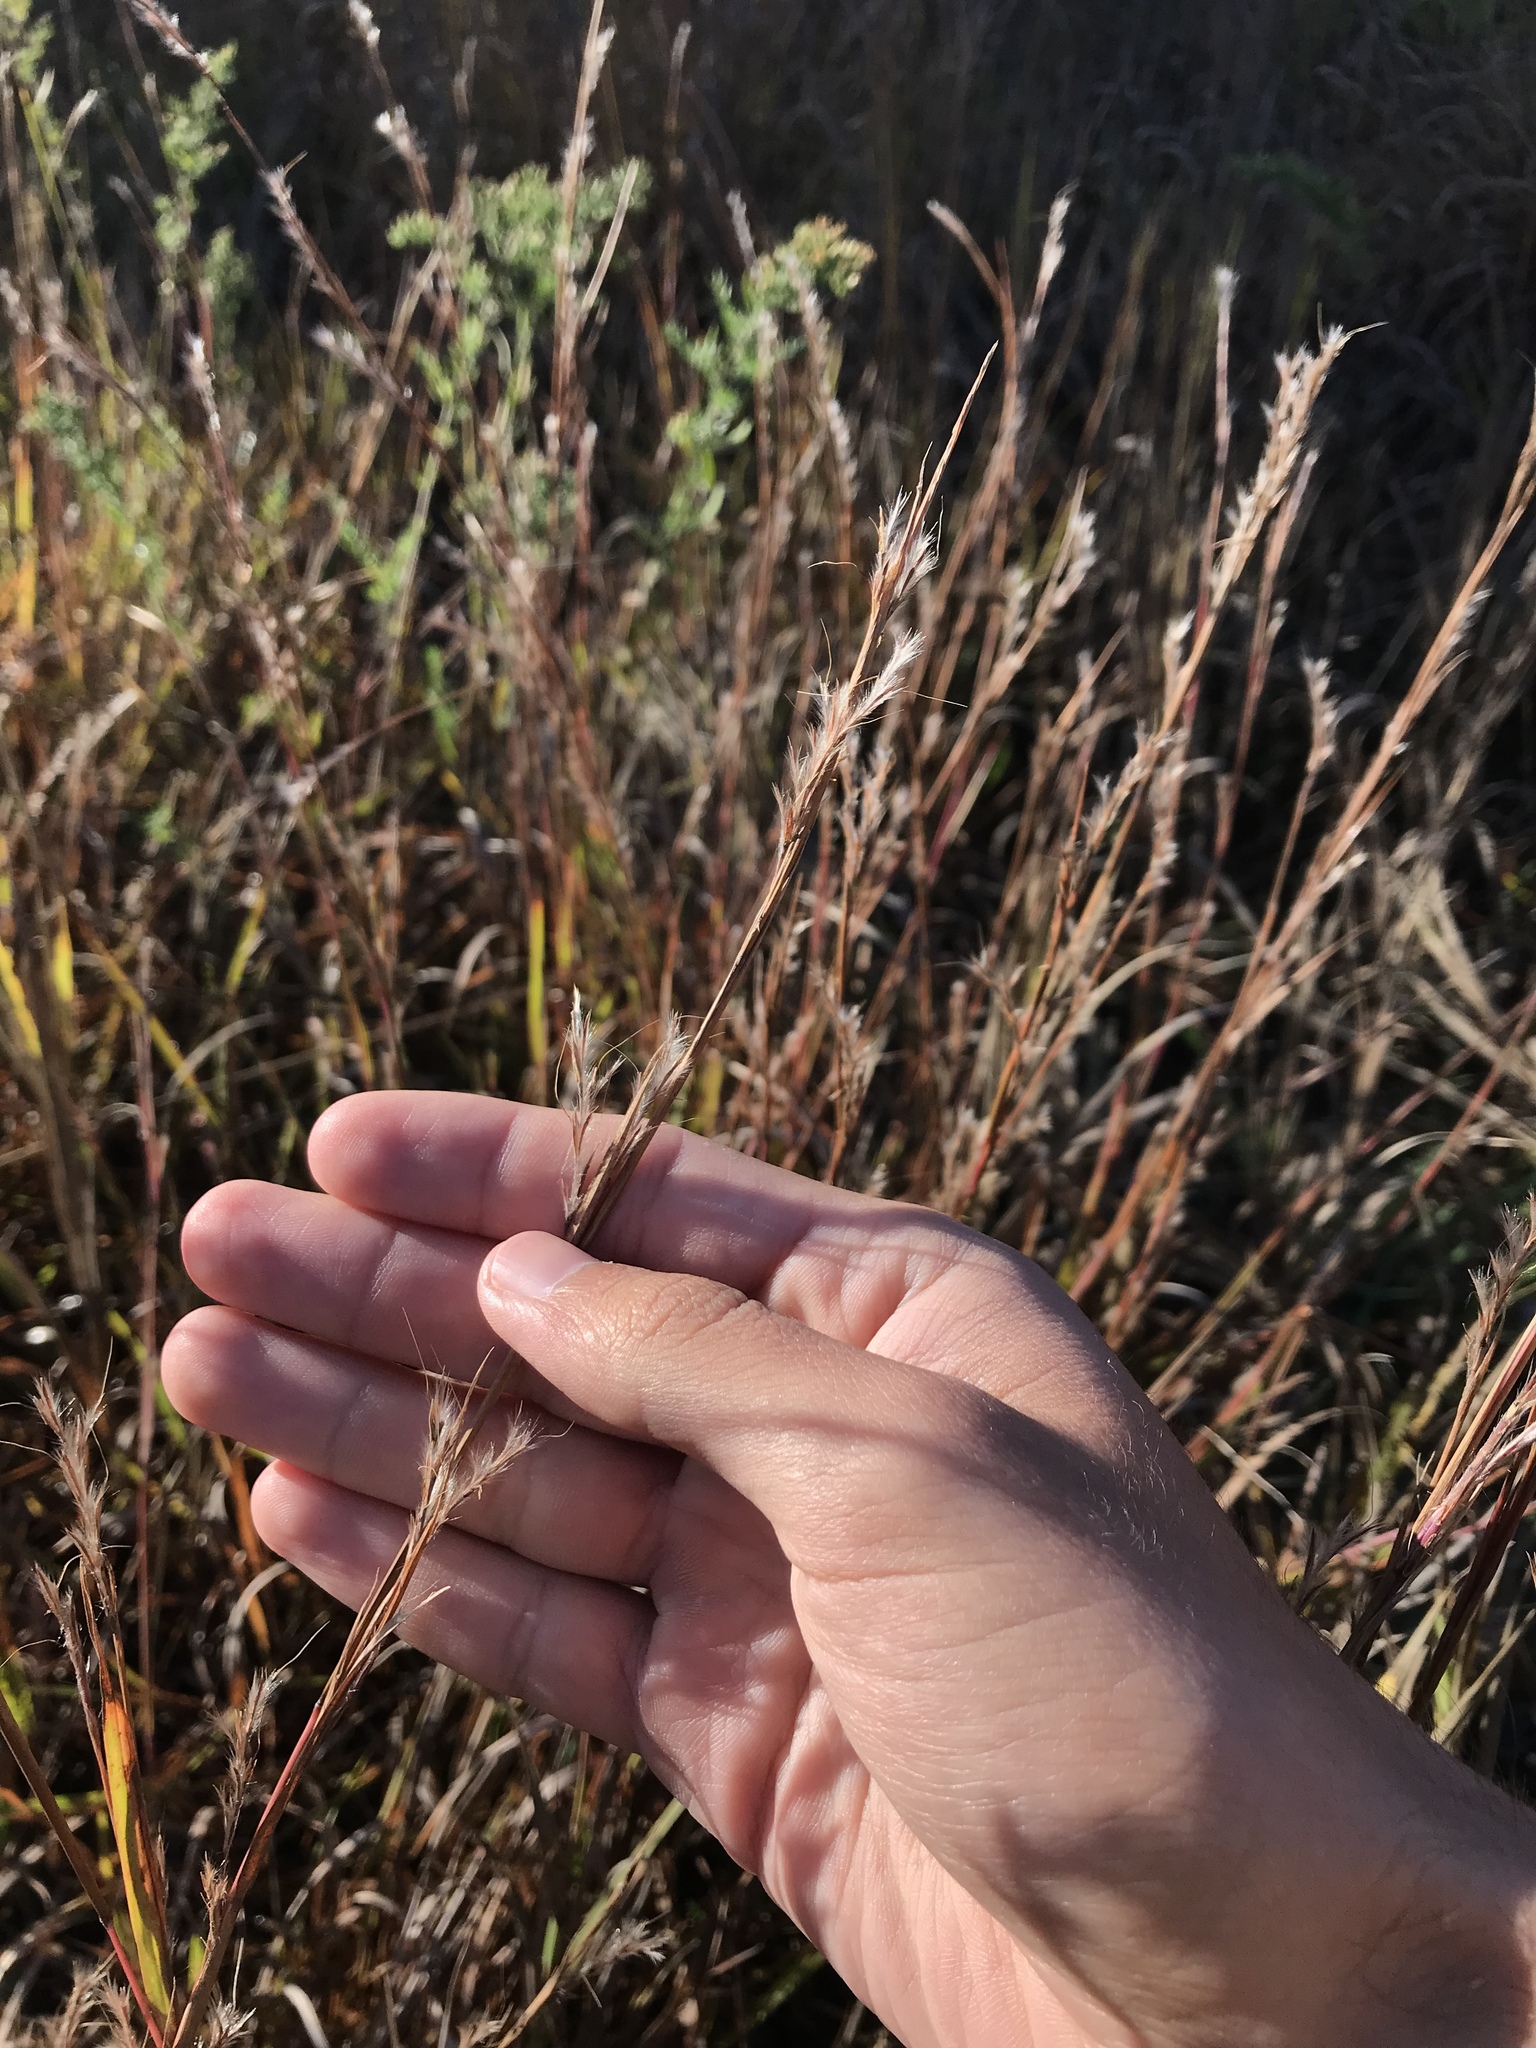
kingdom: Plantae
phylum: Tracheophyta
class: Liliopsida
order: Poales
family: Poaceae
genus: Schizachyrium
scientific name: Schizachyrium scoparium
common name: Little bluestem
